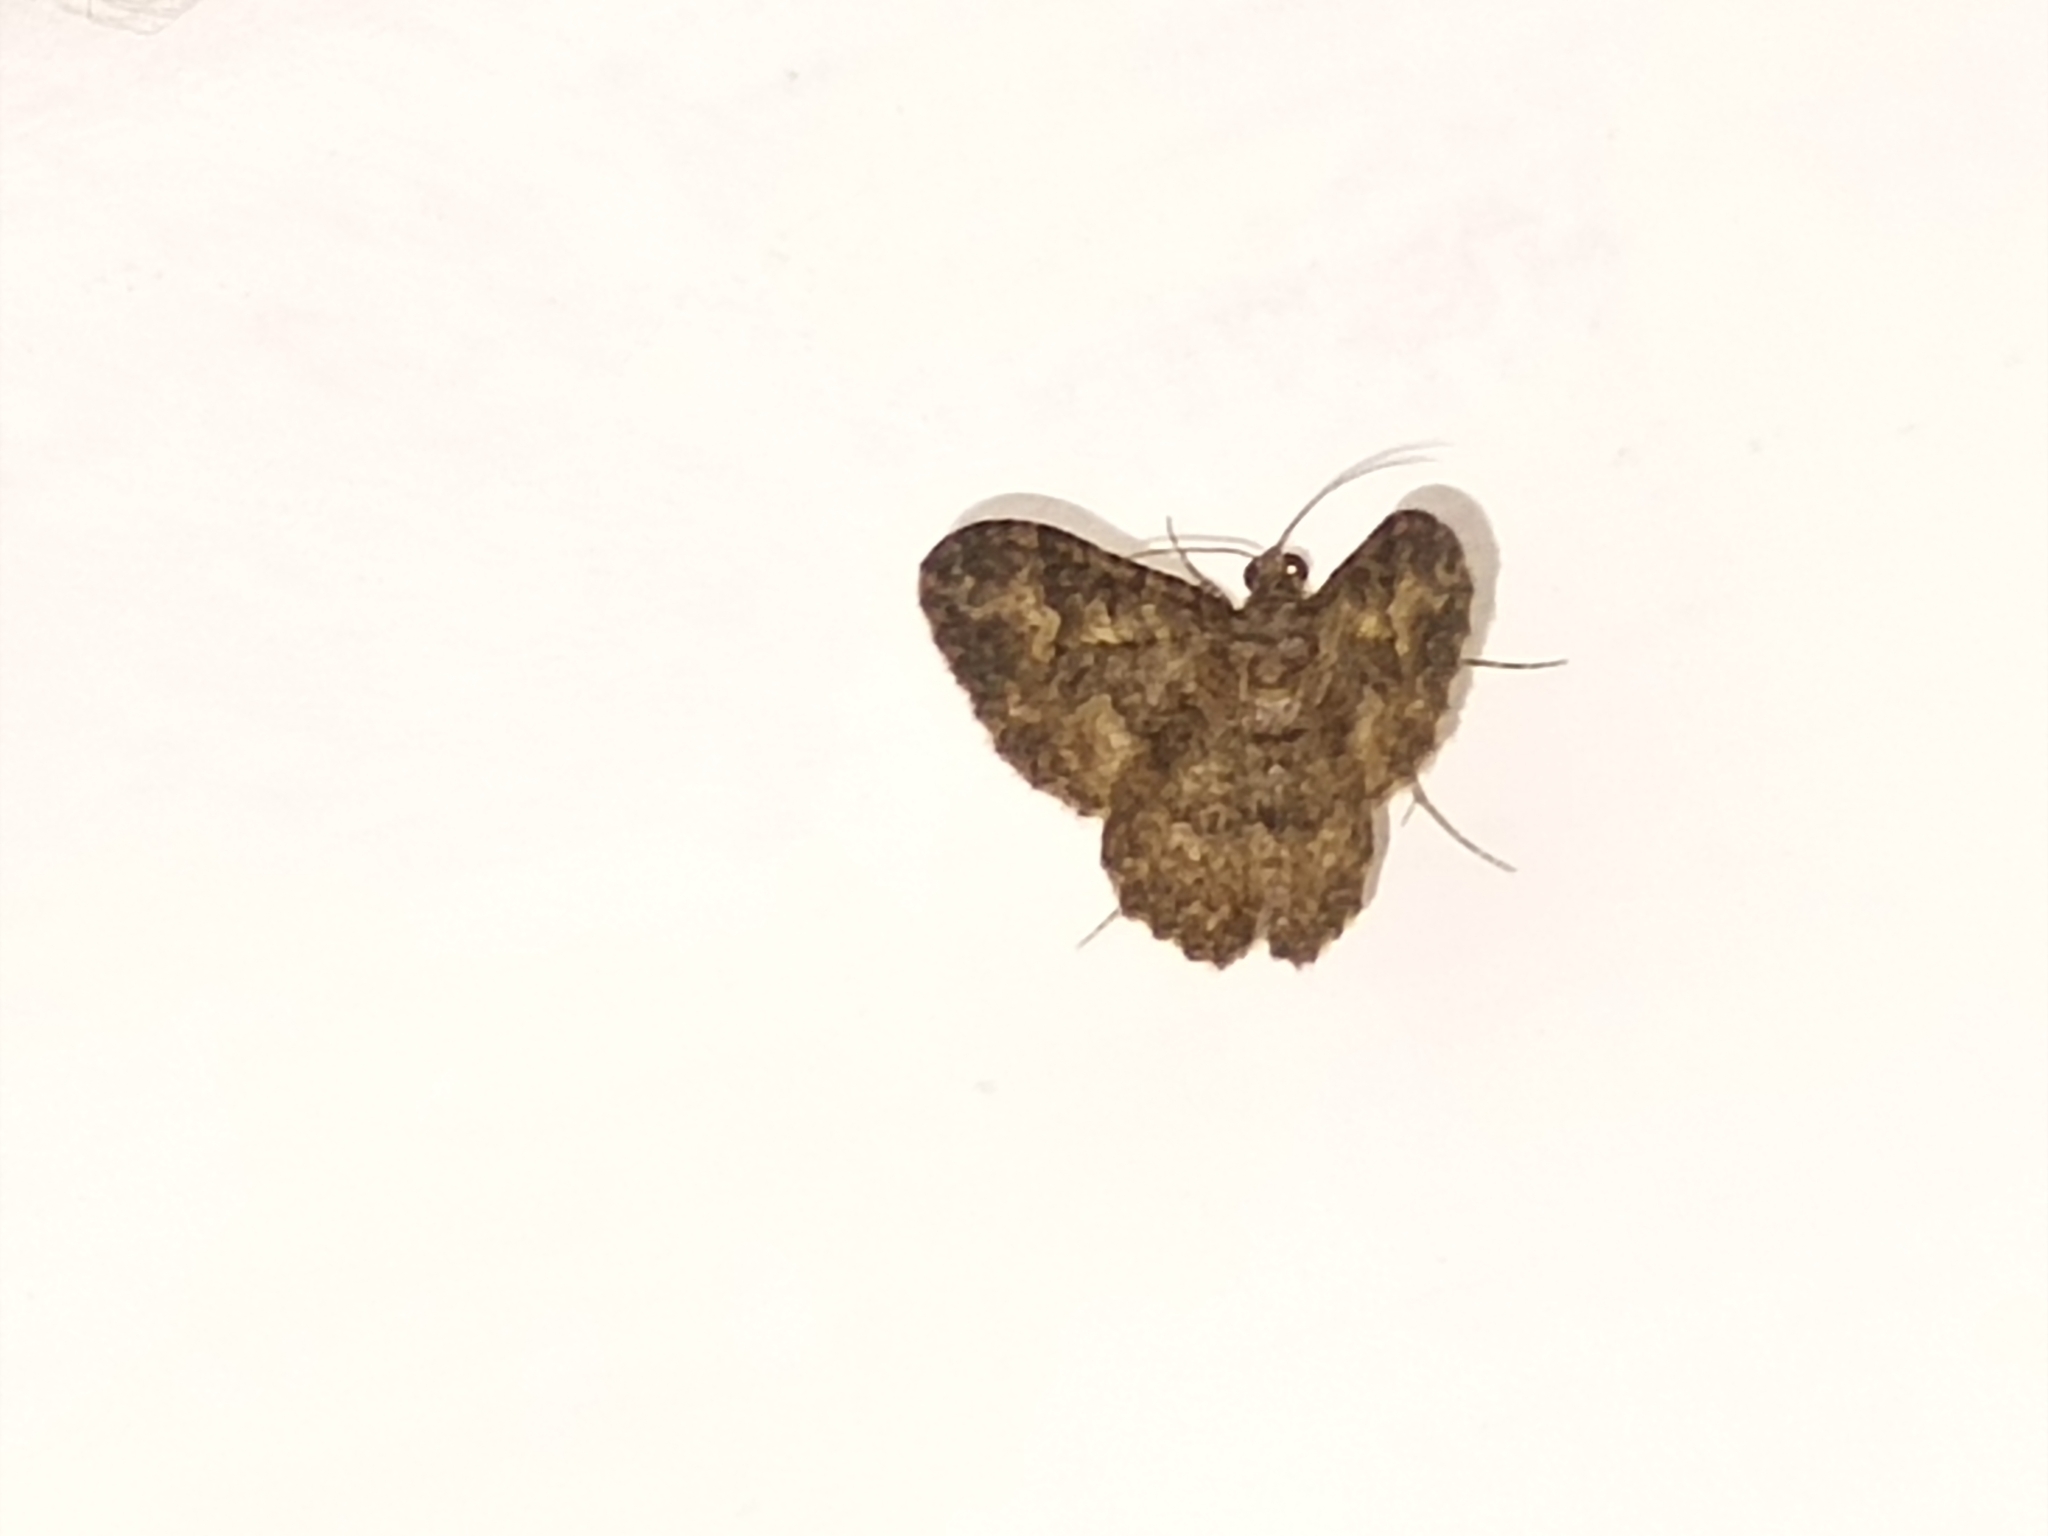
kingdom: Animalia
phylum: Arthropoda
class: Insecta
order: Lepidoptera
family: Geometridae
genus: Disclisioprocta
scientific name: Disclisioprocta stellata
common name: Somber carpet
